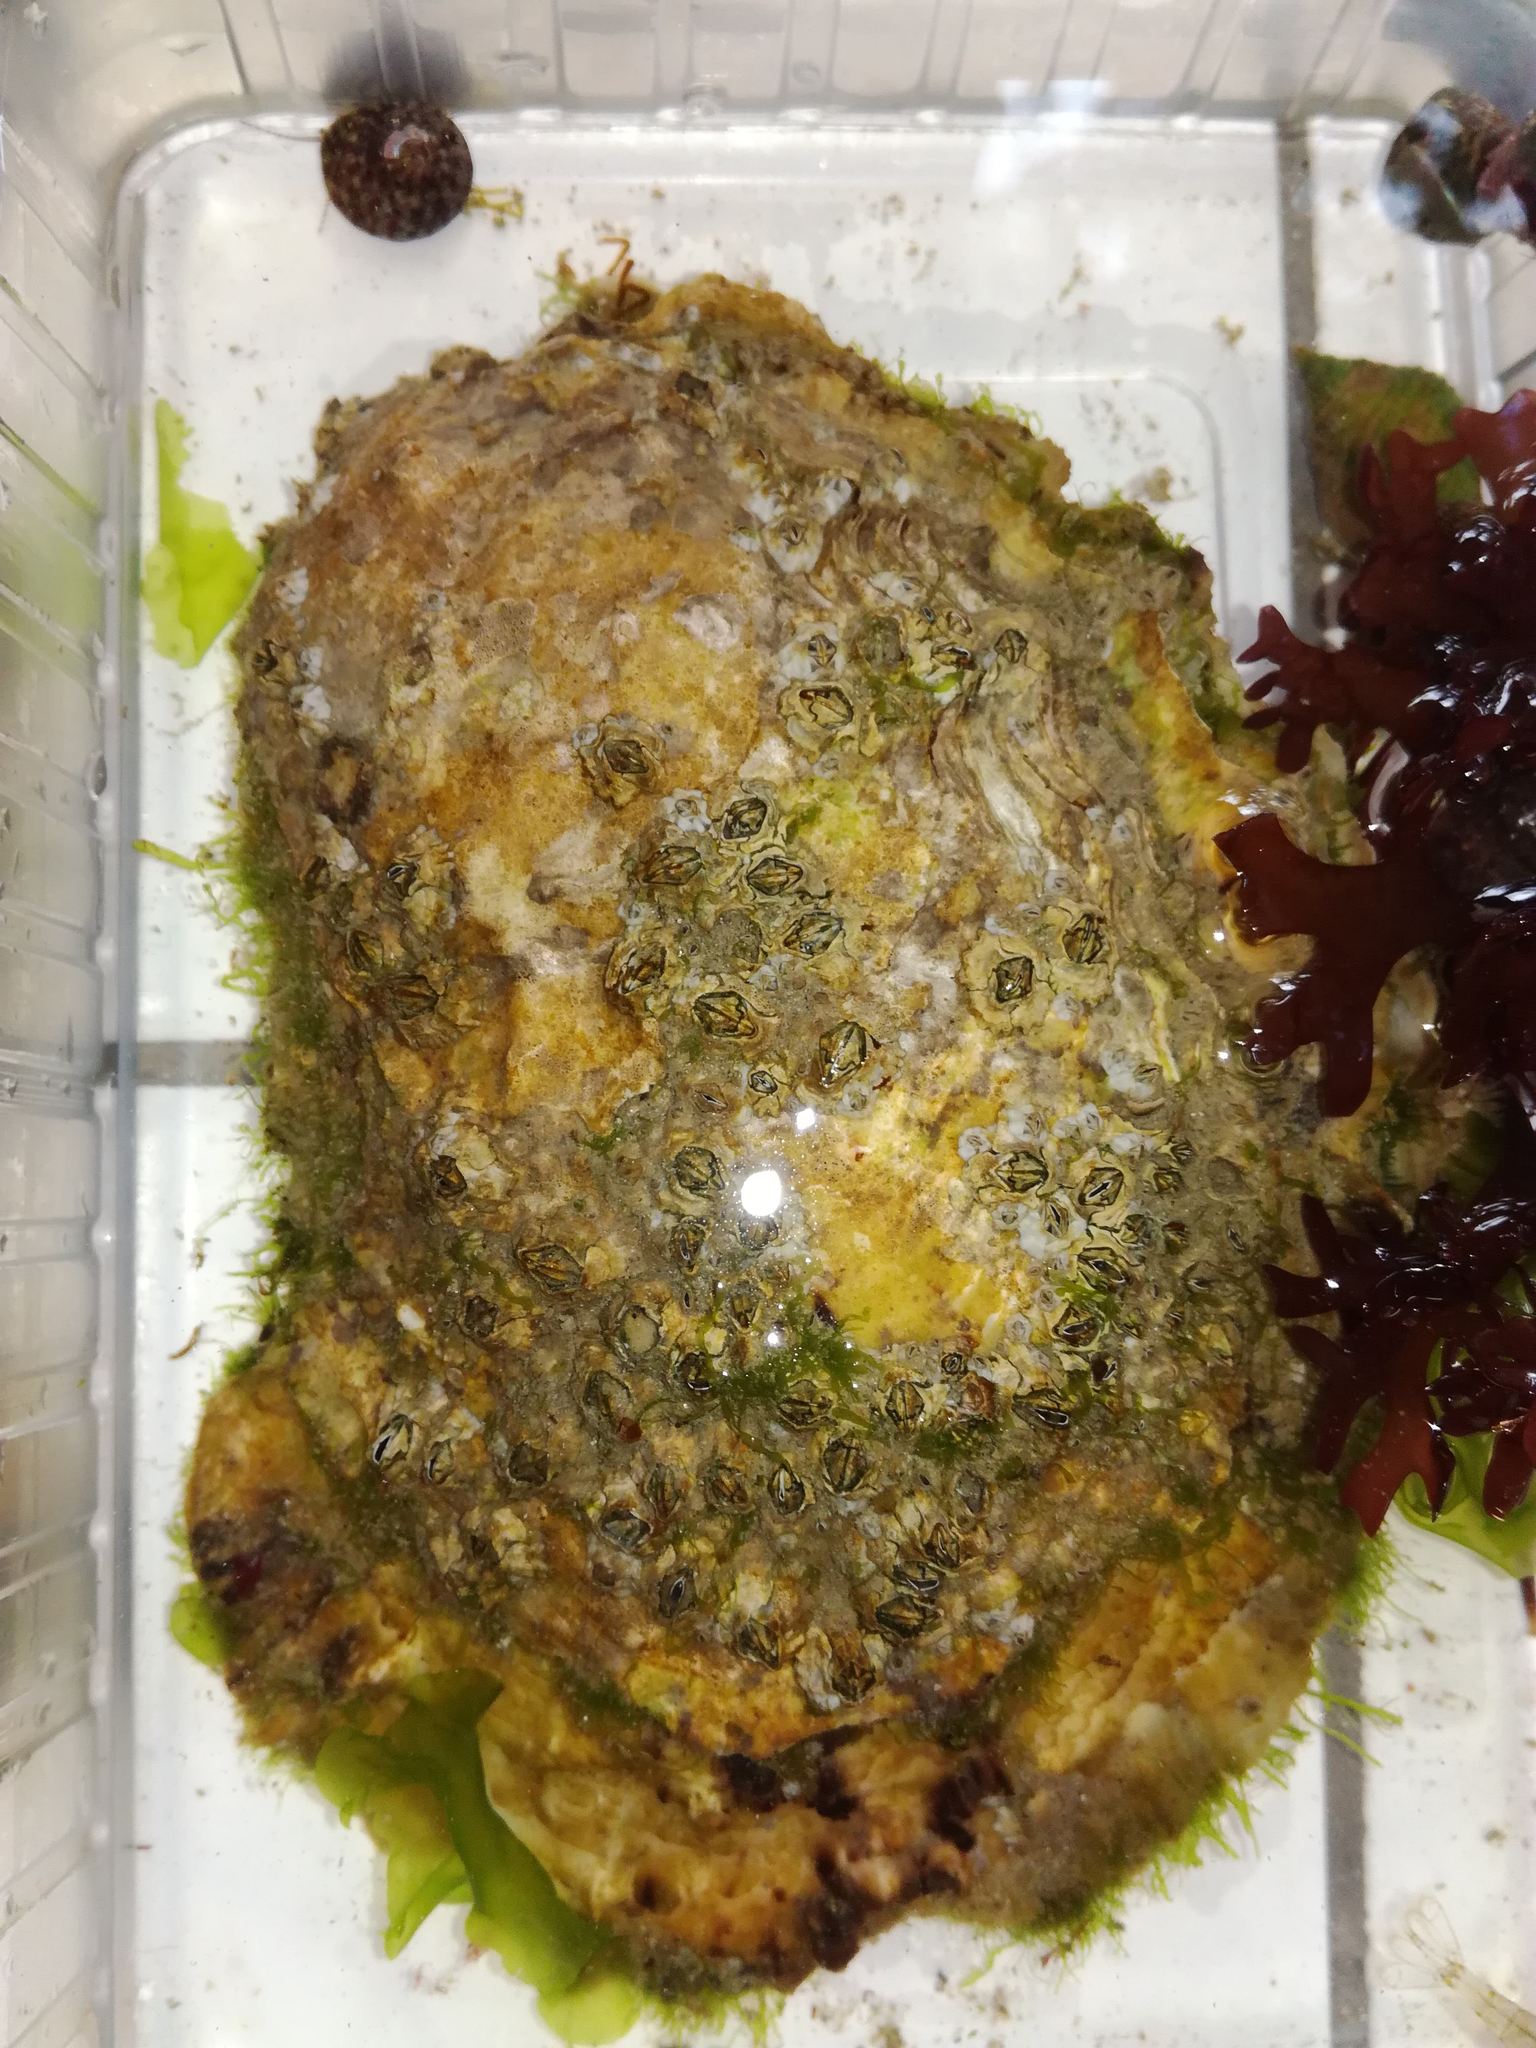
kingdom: Animalia
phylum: Mollusca
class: Bivalvia
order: Ostreida
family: Ostreidae
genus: Ostrea
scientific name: Ostrea edulis
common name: Flat oyster
